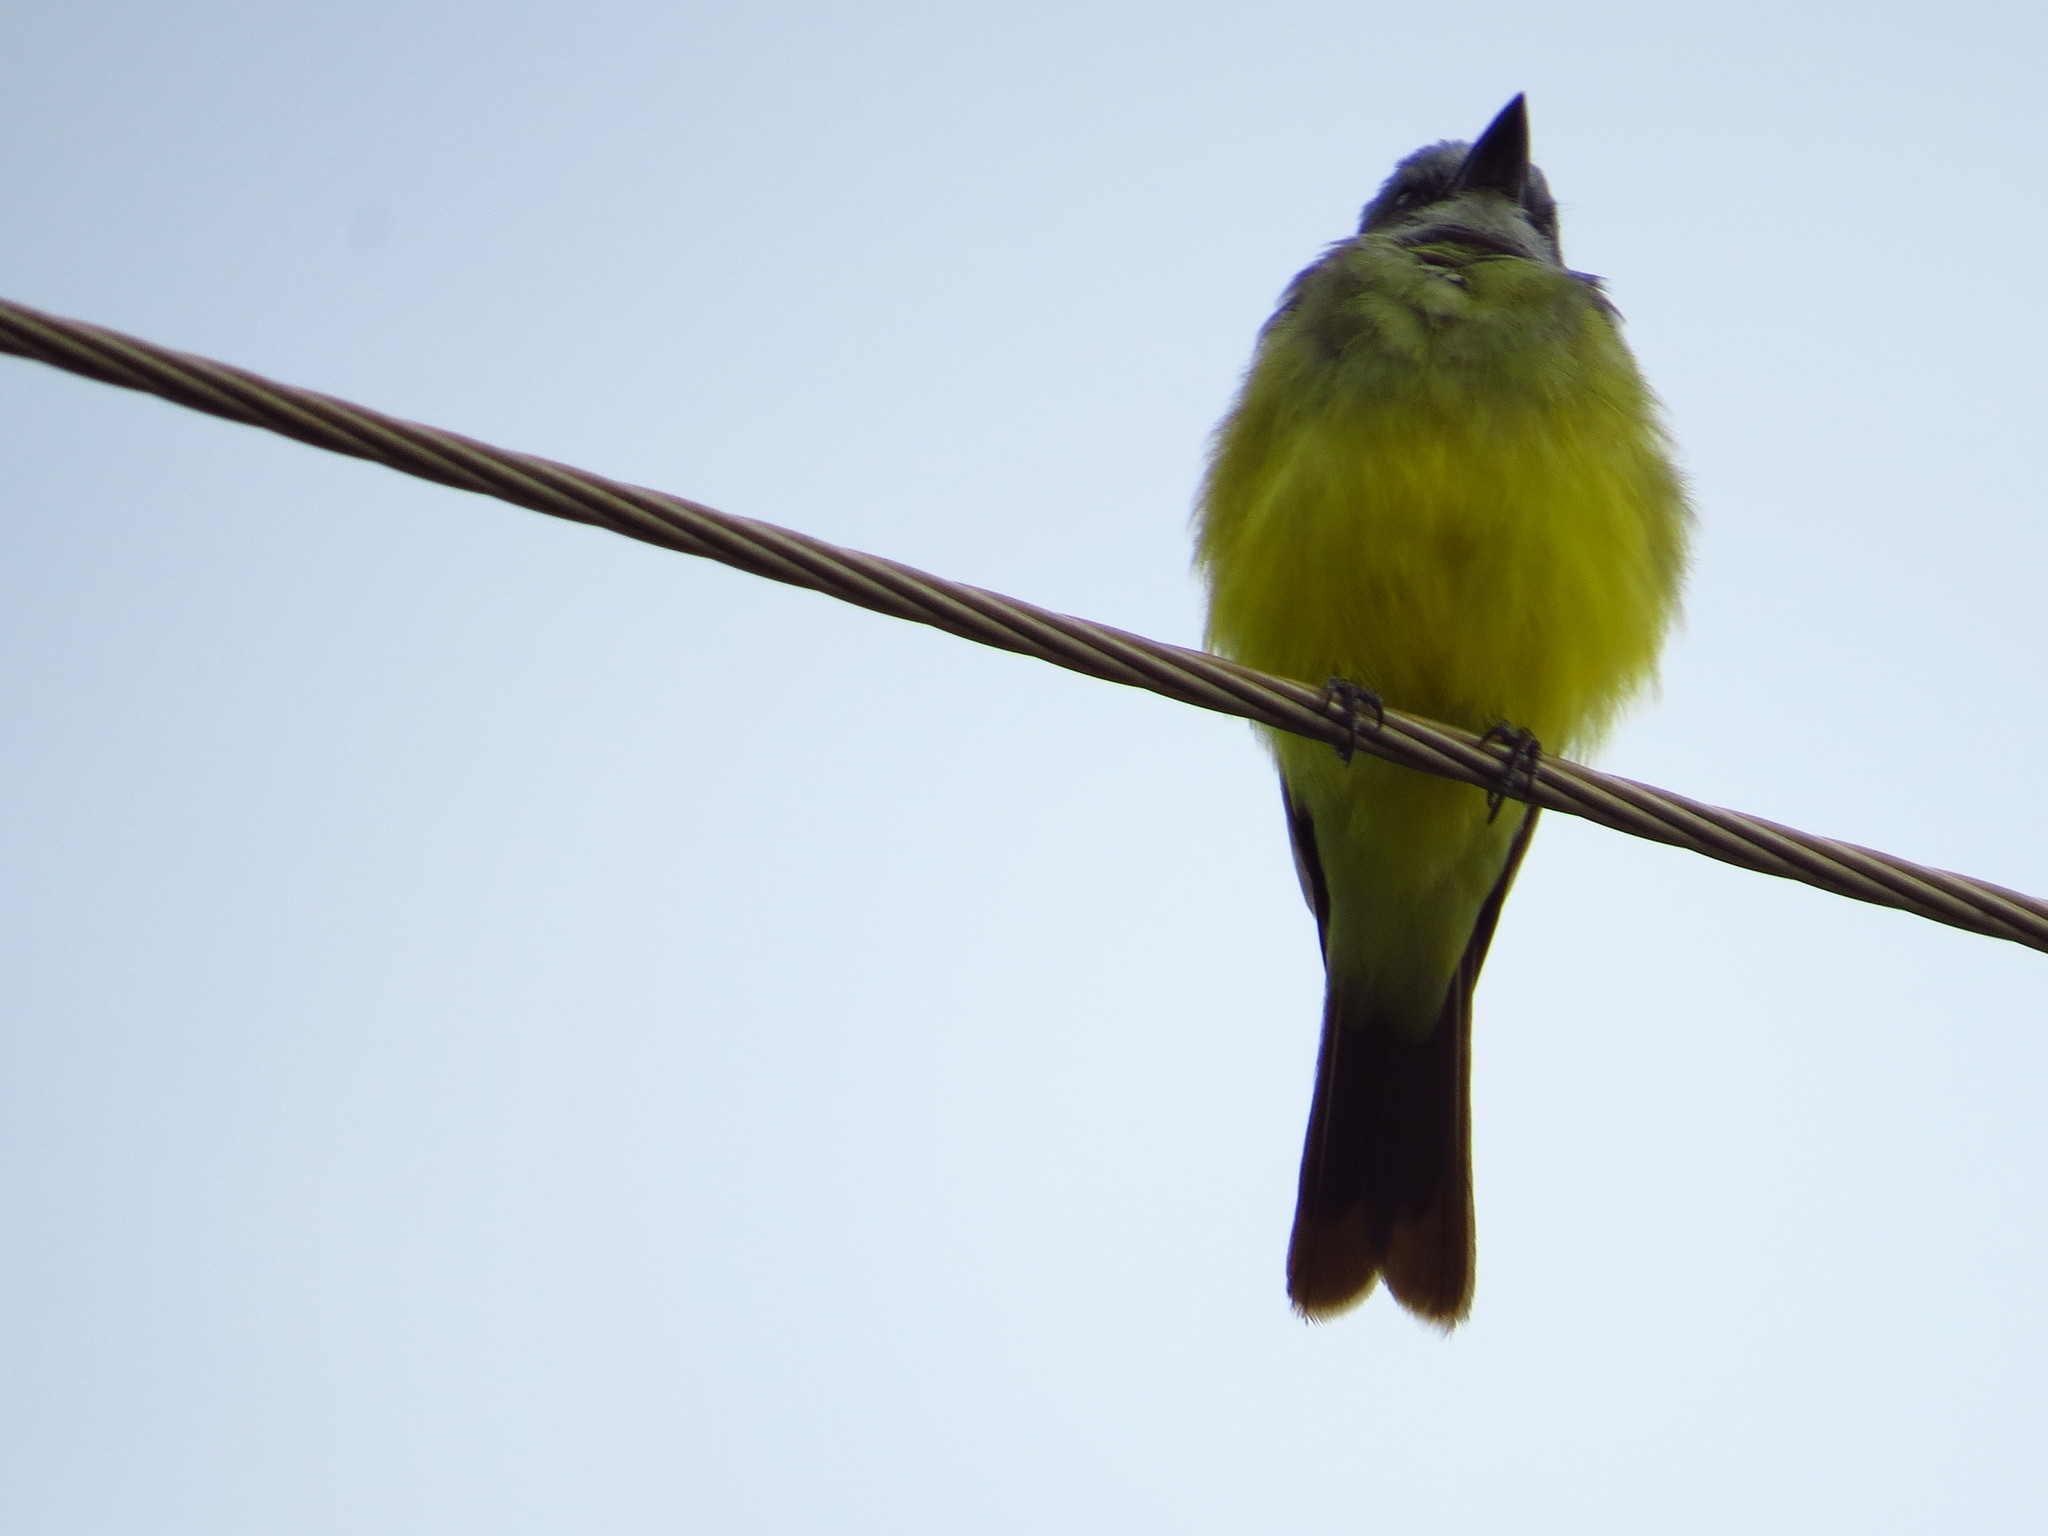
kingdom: Animalia
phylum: Chordata
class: Aves
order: Passeriformes
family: Tyrannidae
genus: Tyrannus
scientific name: Tyrannus melancholicus
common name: Tropical kingbird
